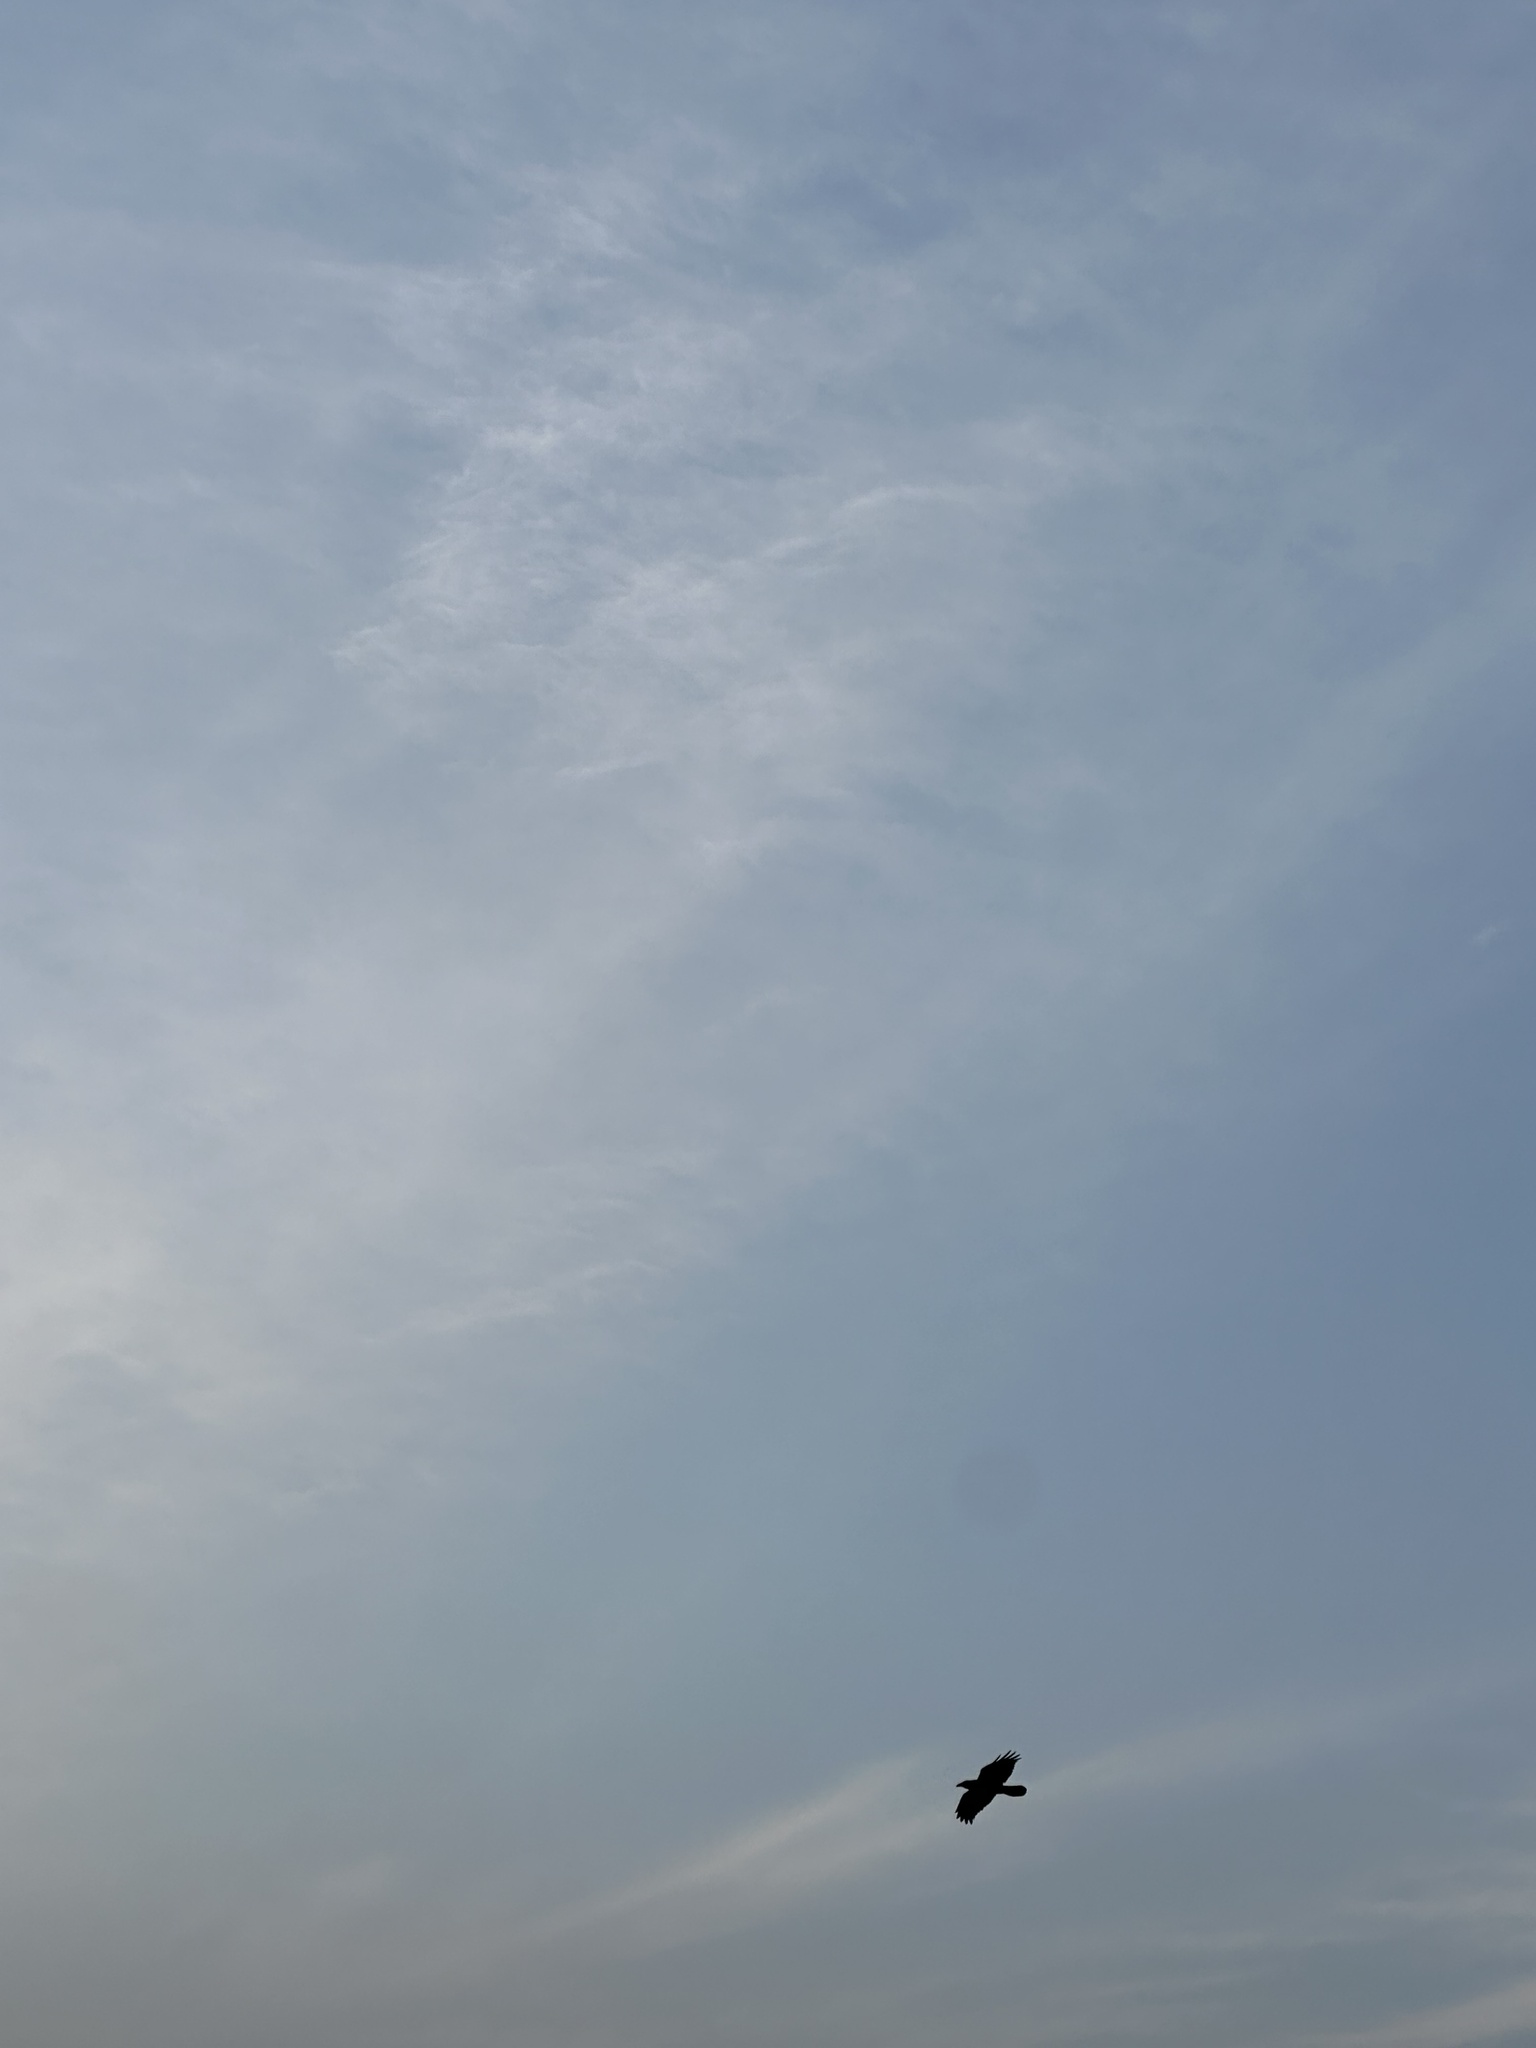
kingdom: Animalia
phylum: Chordata
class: Aves
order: Passeriformes
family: Corvidae
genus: Corvus
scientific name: Corvus corax
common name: Common raven
